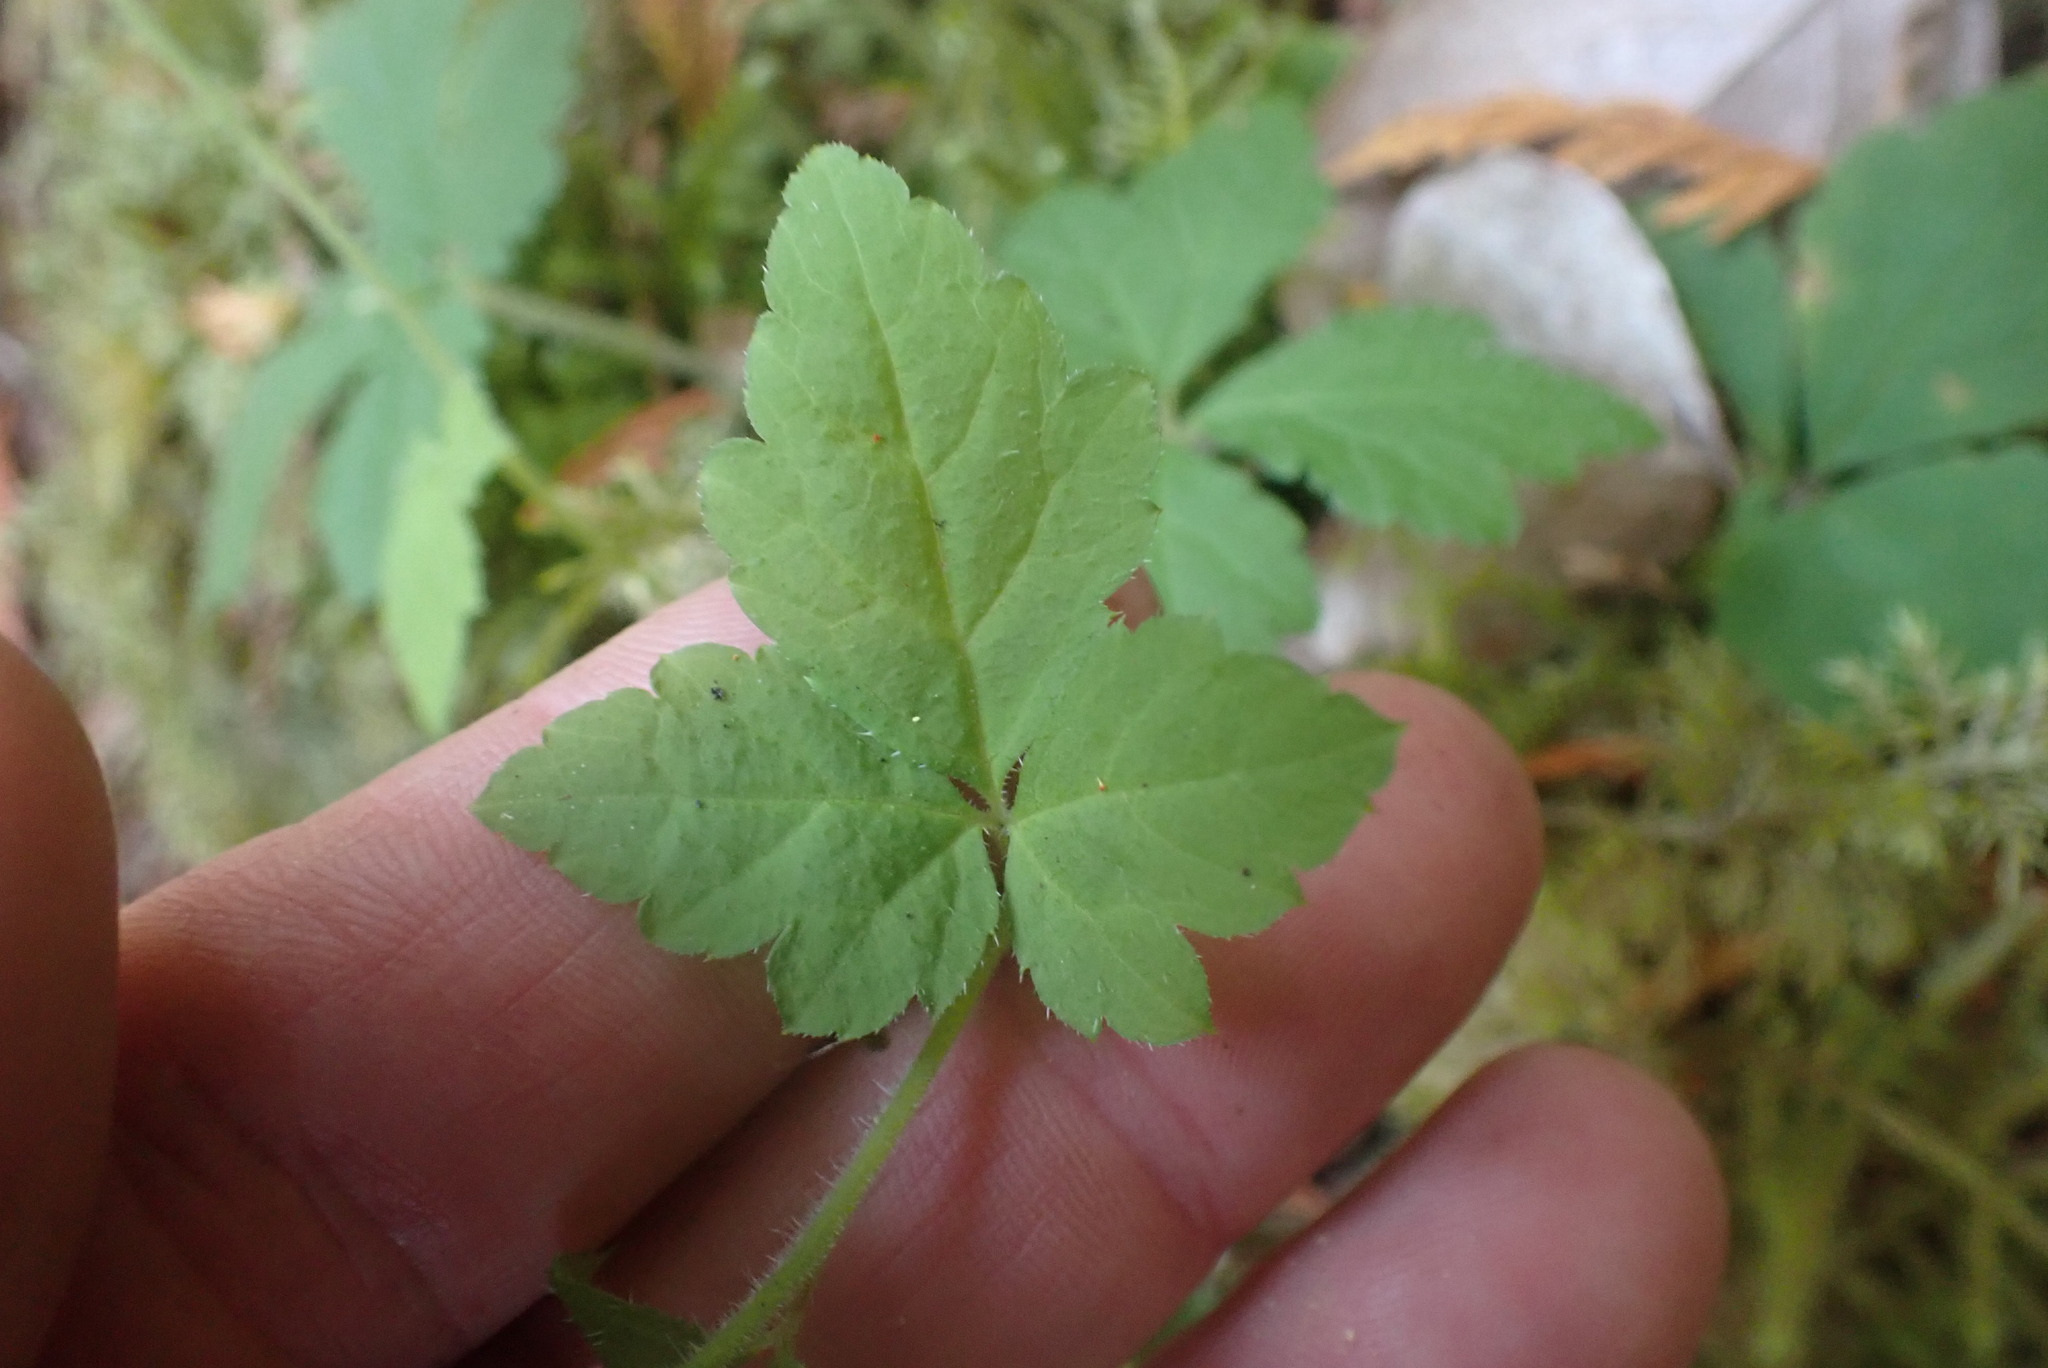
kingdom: Plantae
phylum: Tracheophyta
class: Magnoliopsida
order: Saxifragales
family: Saxifragaceae
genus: Tiarella
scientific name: Tiarella trifoliata
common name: Sugar-scoop
